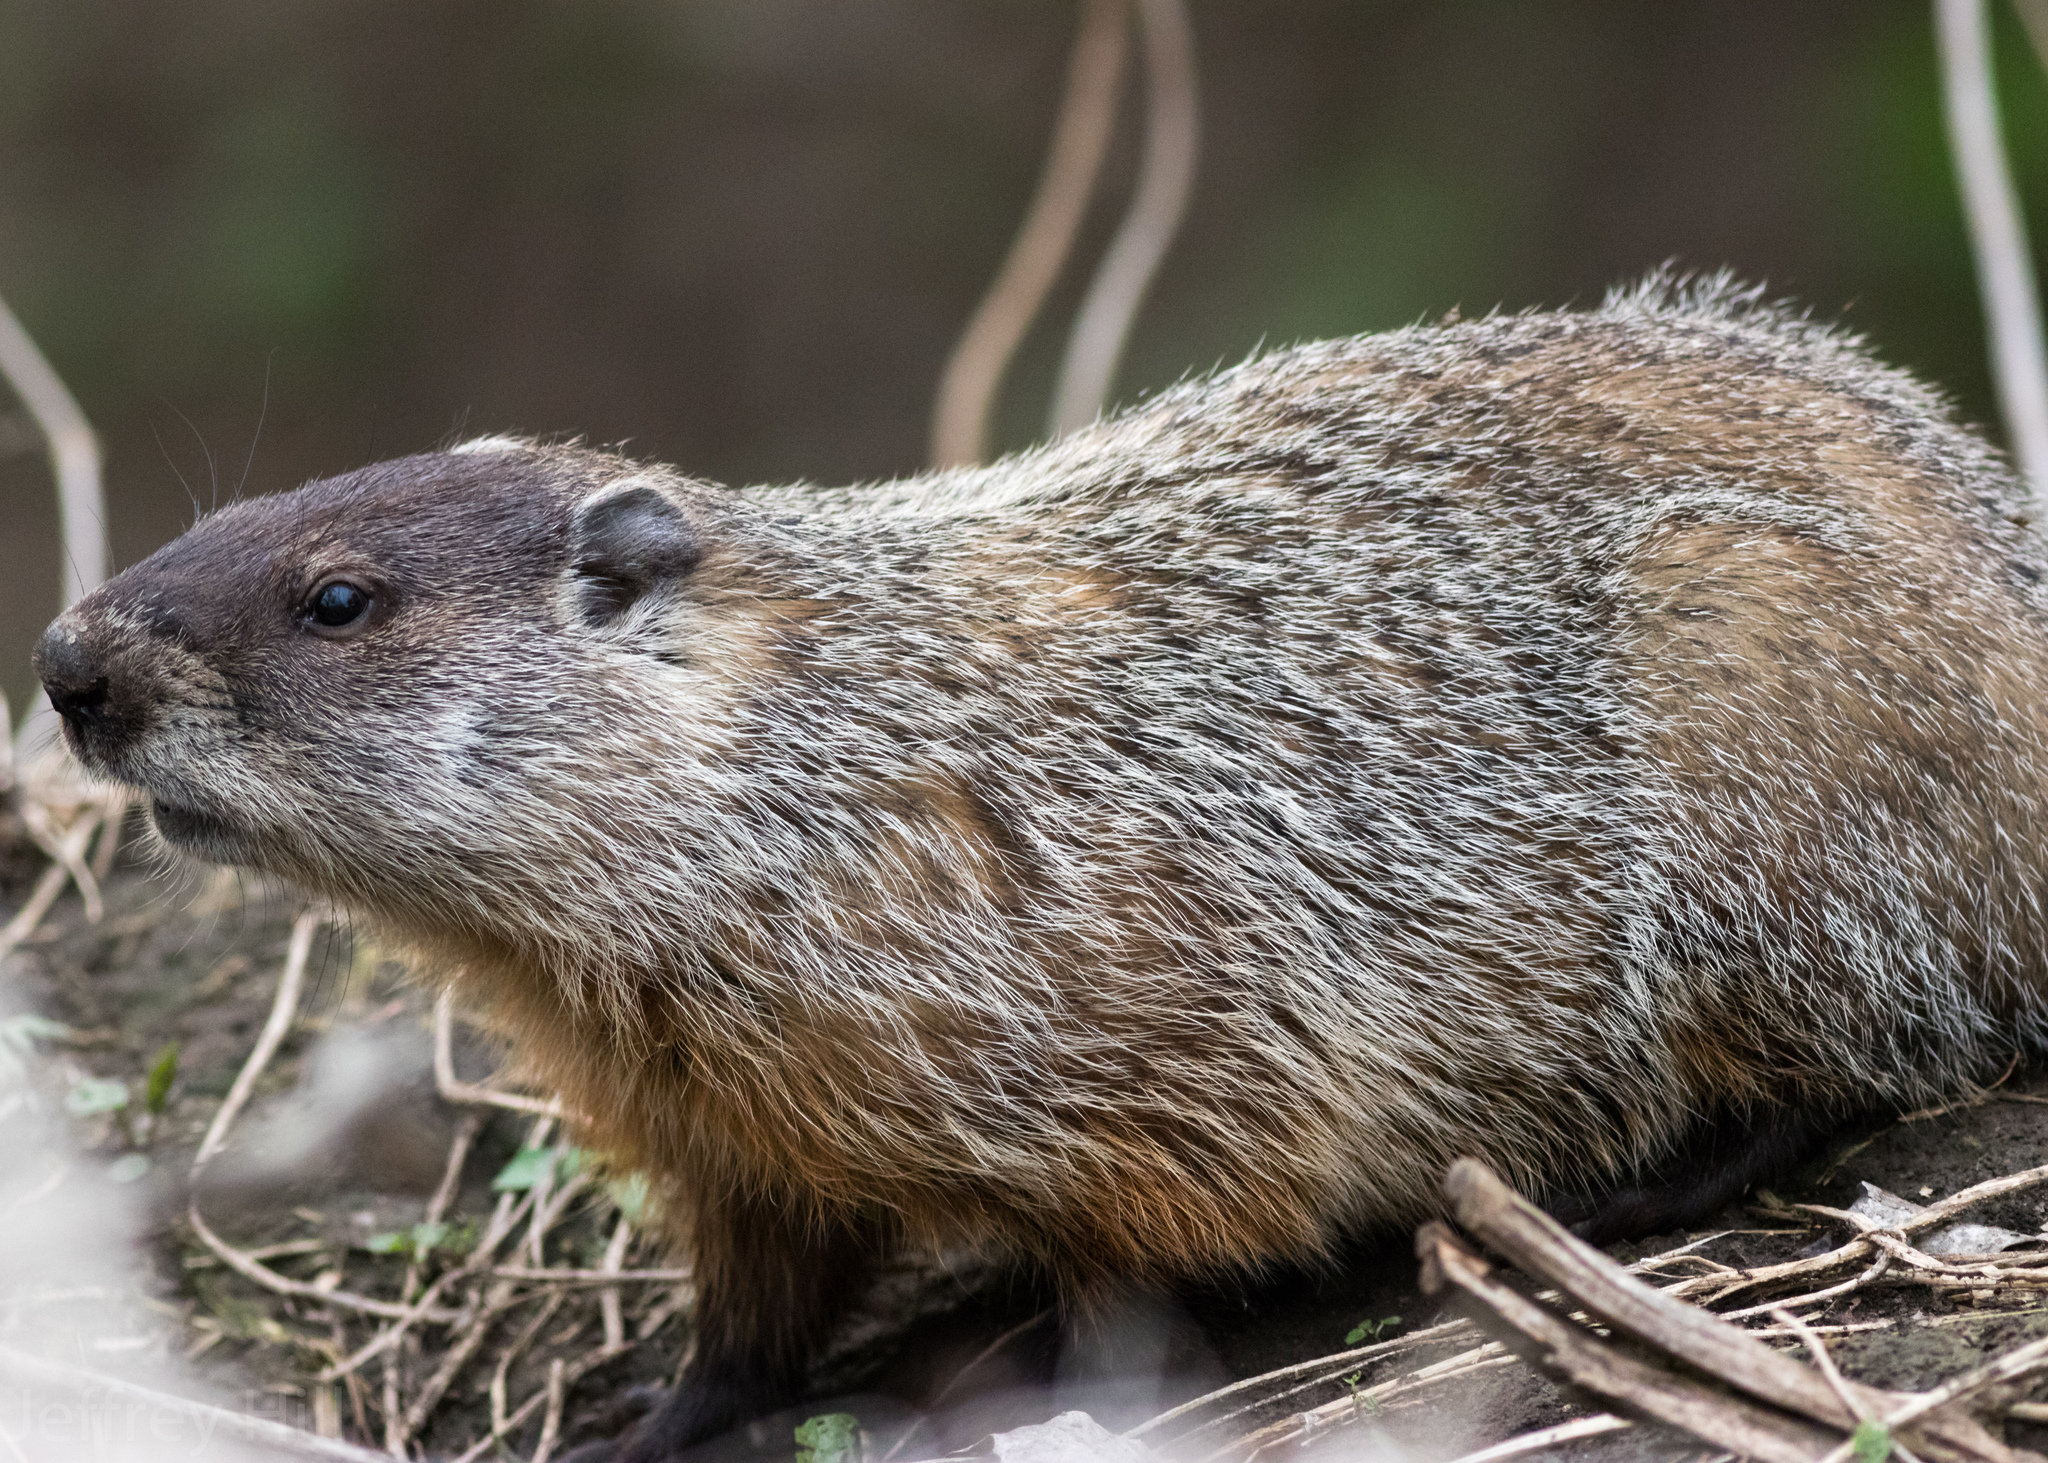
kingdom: Animalia
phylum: Chordata
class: Mammalia
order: Rodentia
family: Sciuridae
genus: Marmota
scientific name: Marmota monax
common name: Groundhog
